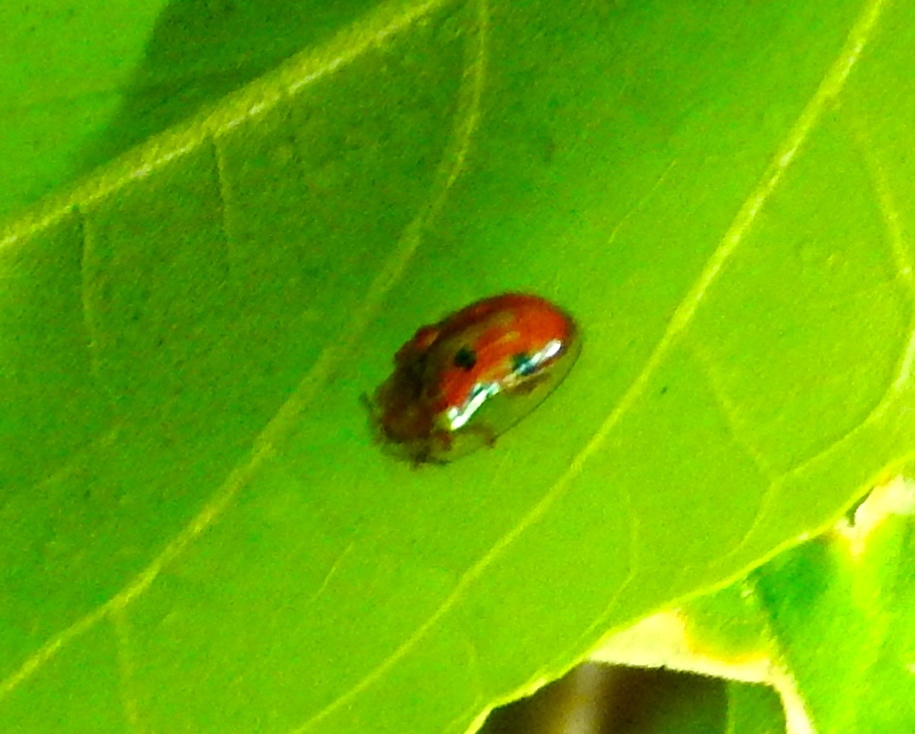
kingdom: Animalia
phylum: Arthropoda
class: Insecta
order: Coleoptera
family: Chrysomelidae
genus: Charidotella
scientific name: Charidotella sexpunctata
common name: Golden tortoise beetle
